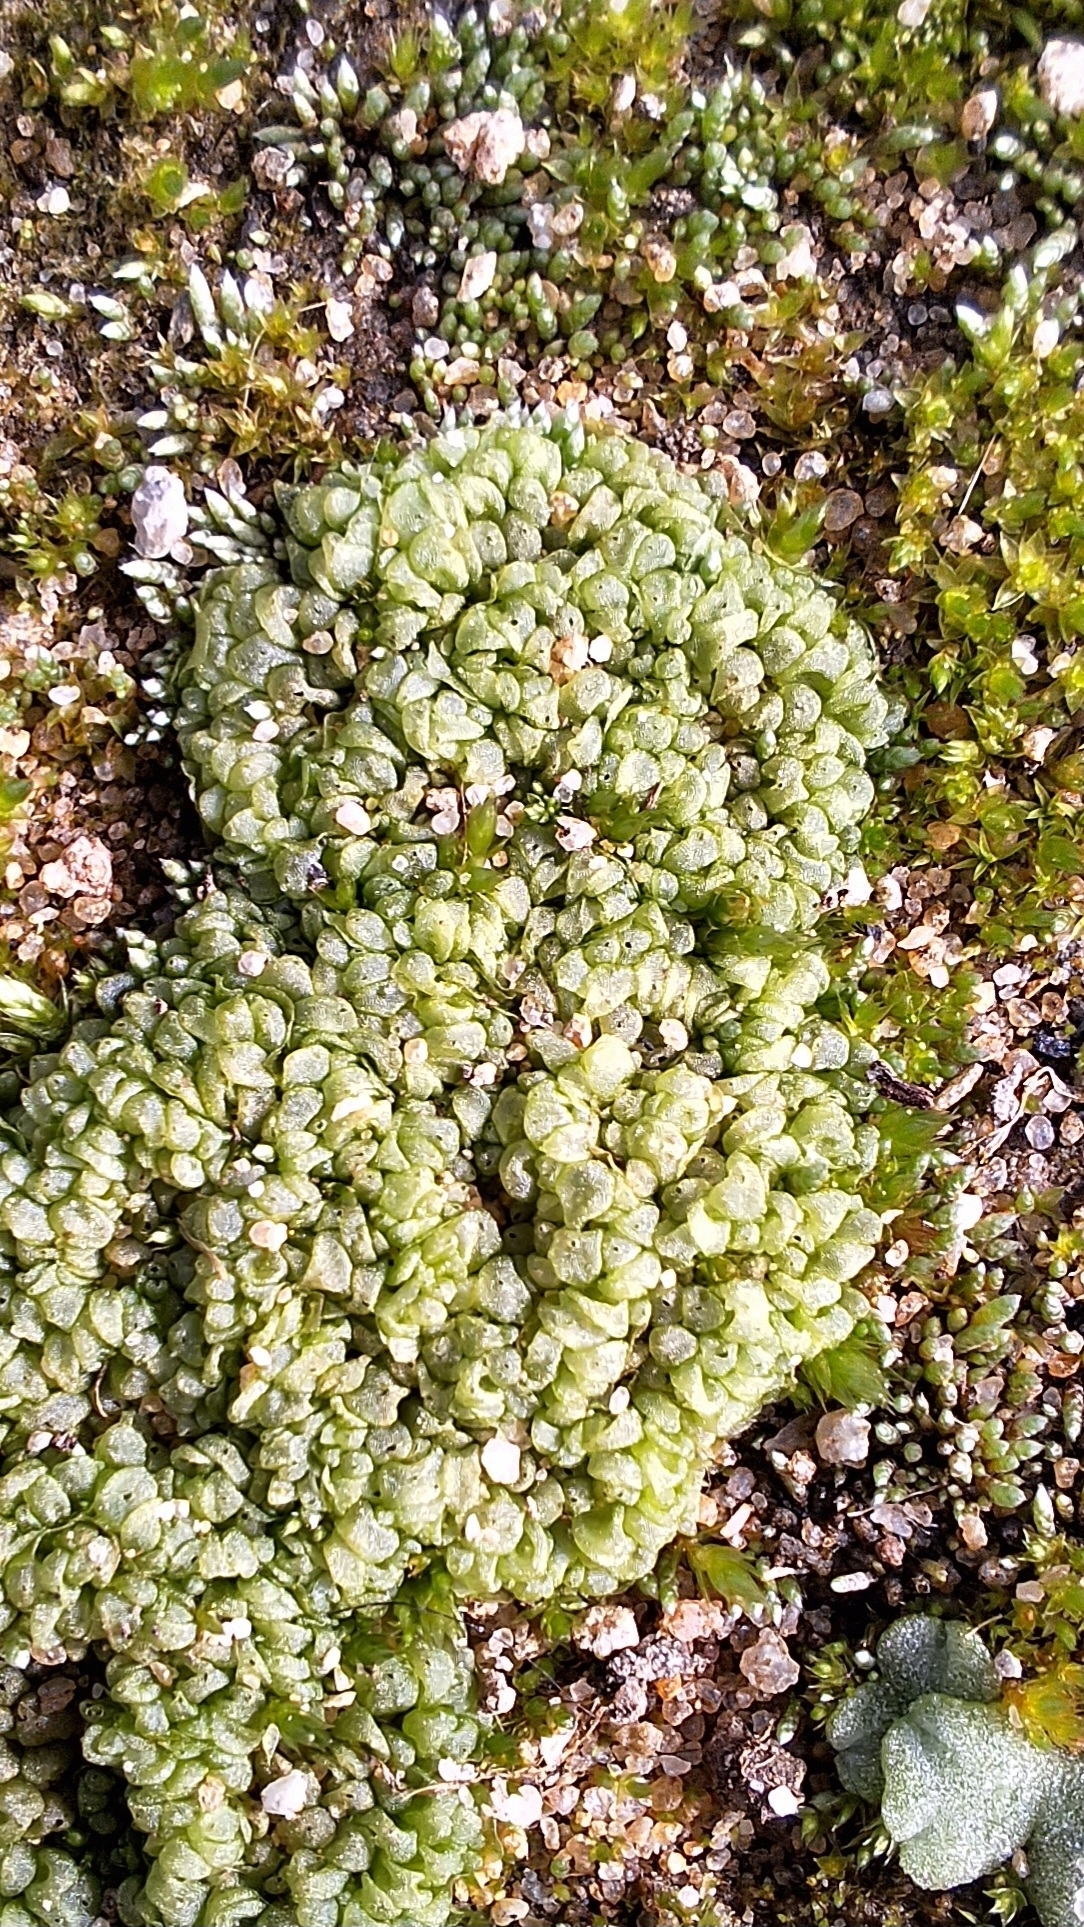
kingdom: Plantae
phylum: Marchantiophyta
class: Marchantiopsida
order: Sphaerocarpales
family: Sphaerocarpaceae
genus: Sphaerocarpos
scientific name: Sphaerocarpos texanus
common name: Texas balloonwort
